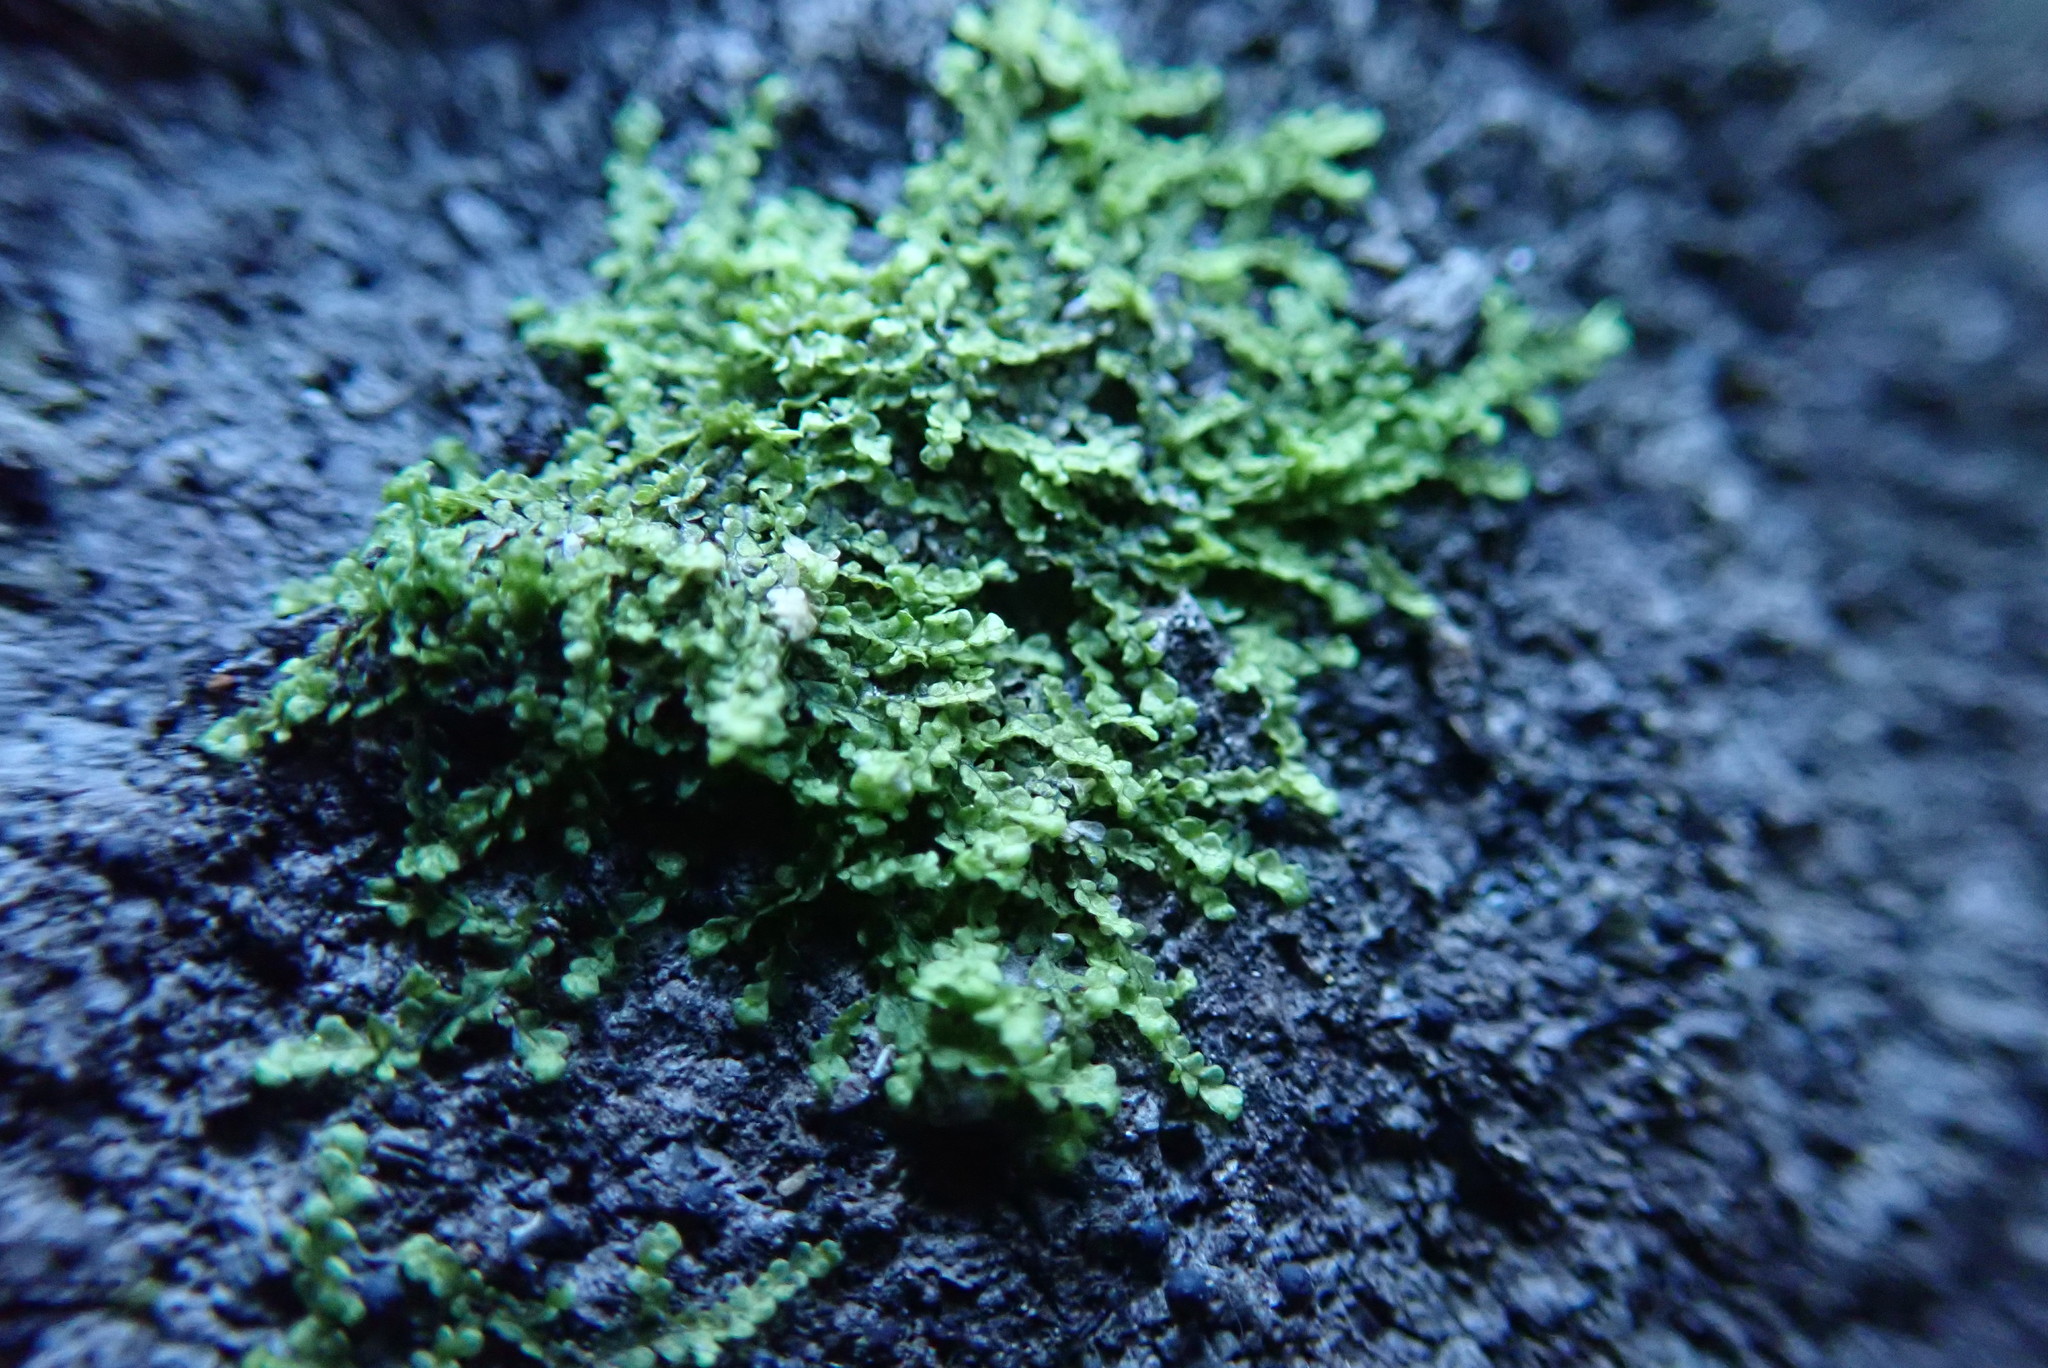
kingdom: Plantae
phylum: Marchantiophyta
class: Jungermanniopsida
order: Porellales
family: Radulaceae
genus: Radula
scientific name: Radula complanata
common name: Flat-leaved scalewort
